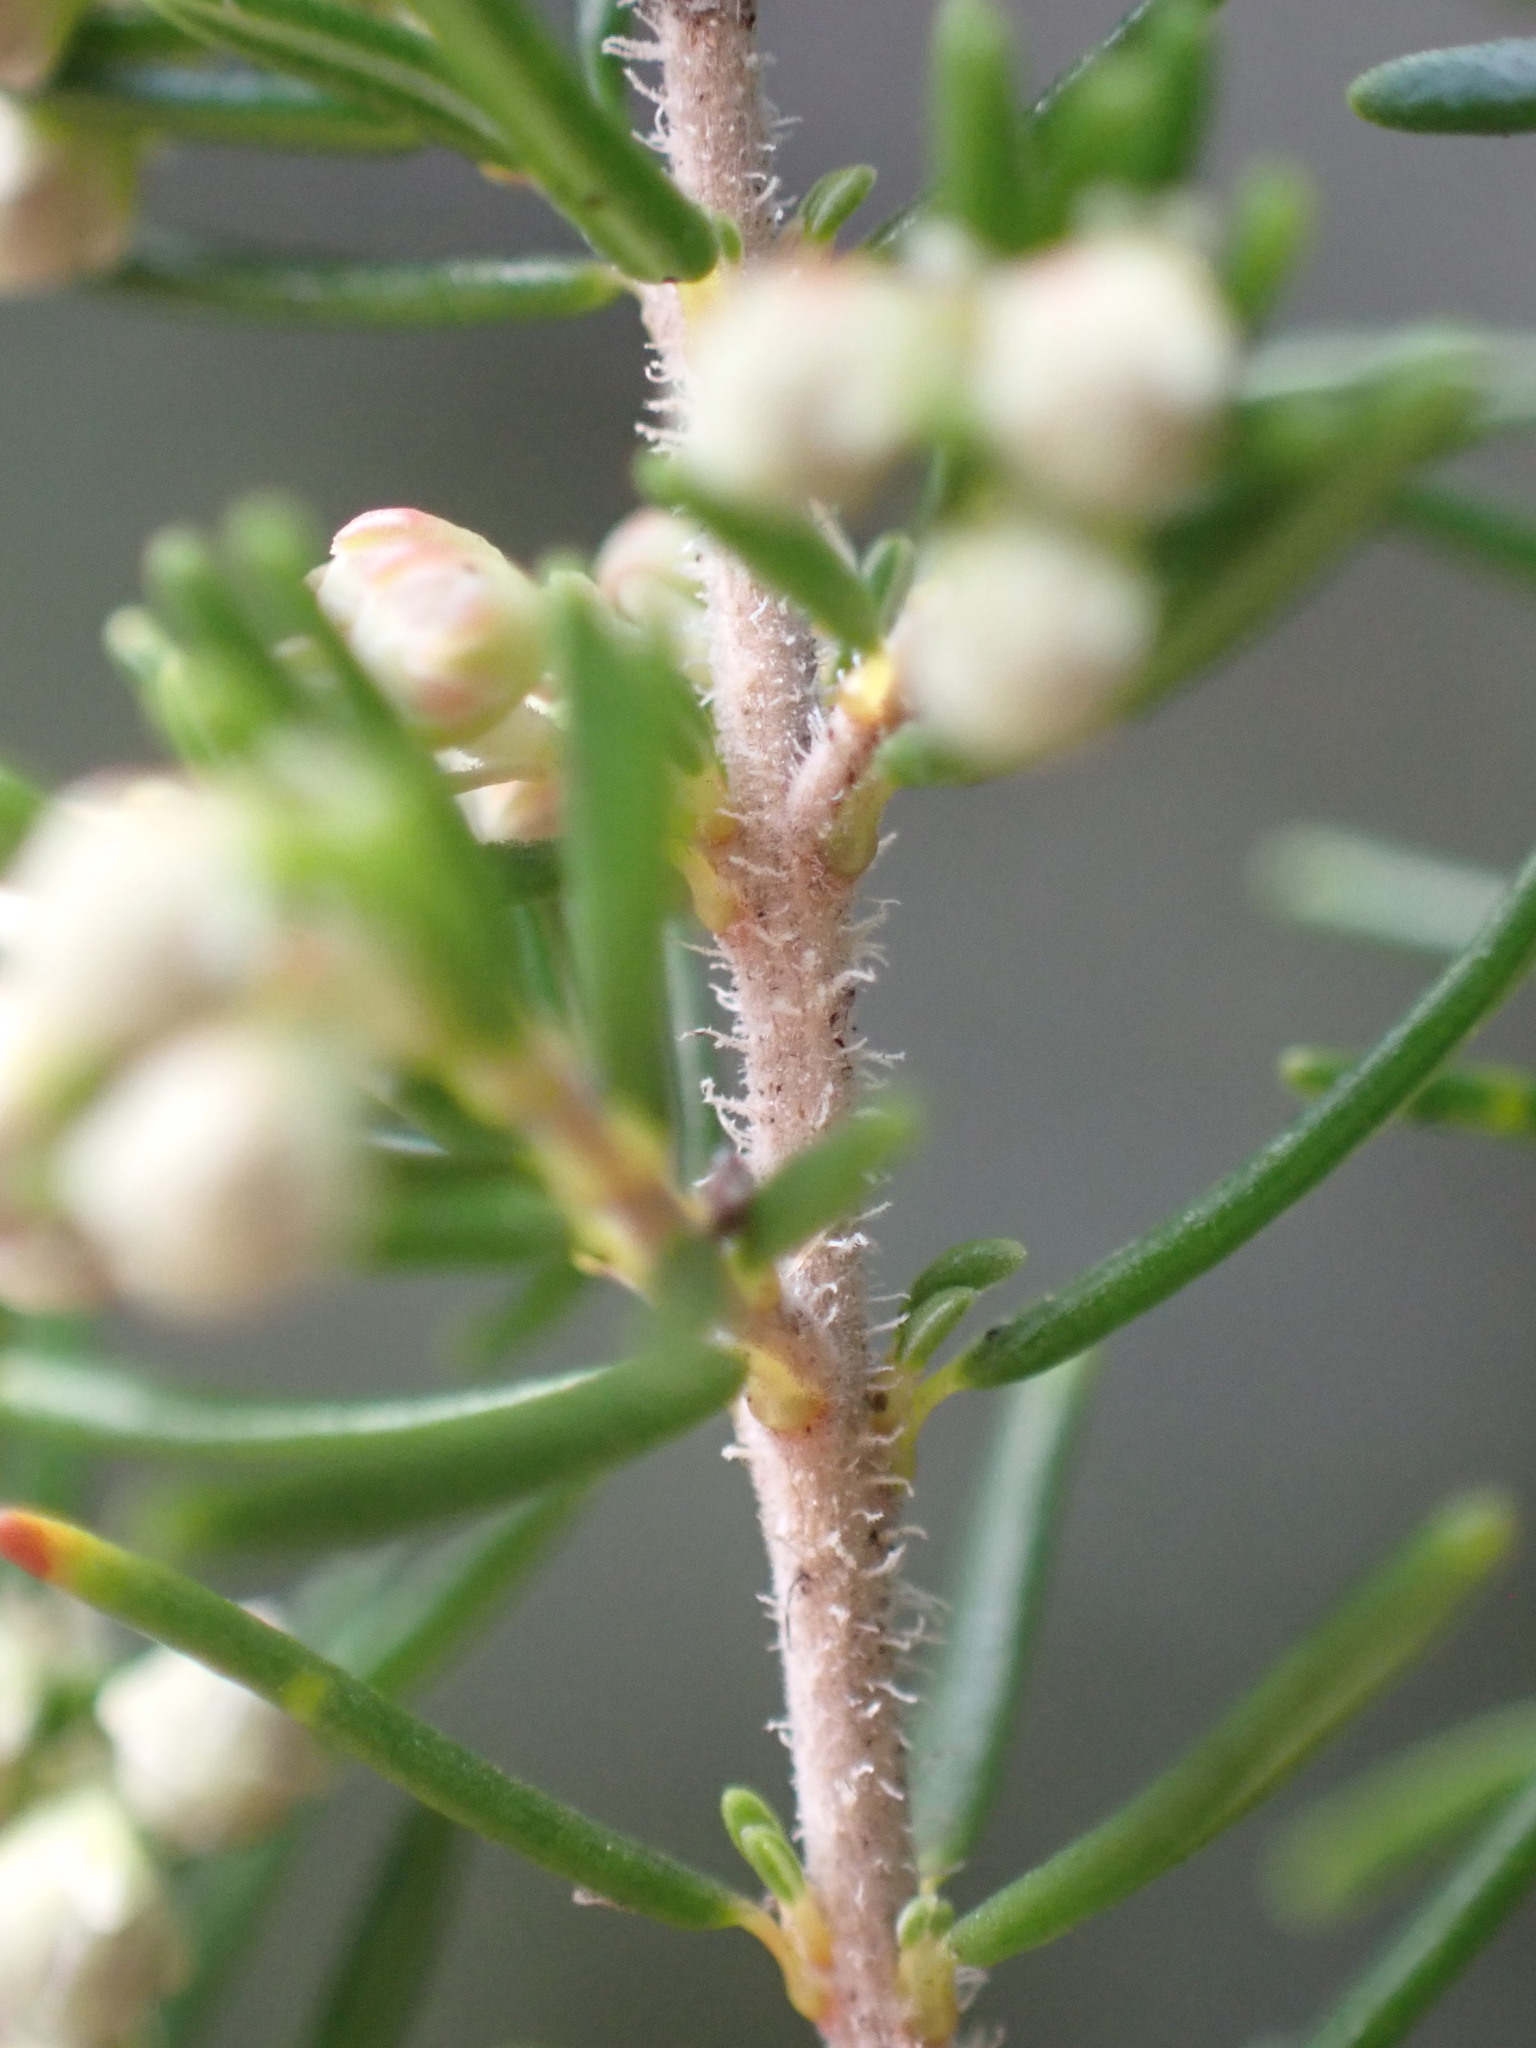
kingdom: Plantae
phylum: Tracheophyta
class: Magnoliopsida
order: Ericales
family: Ericaceae
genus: Erica
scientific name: Erica arborea
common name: Tree heath
